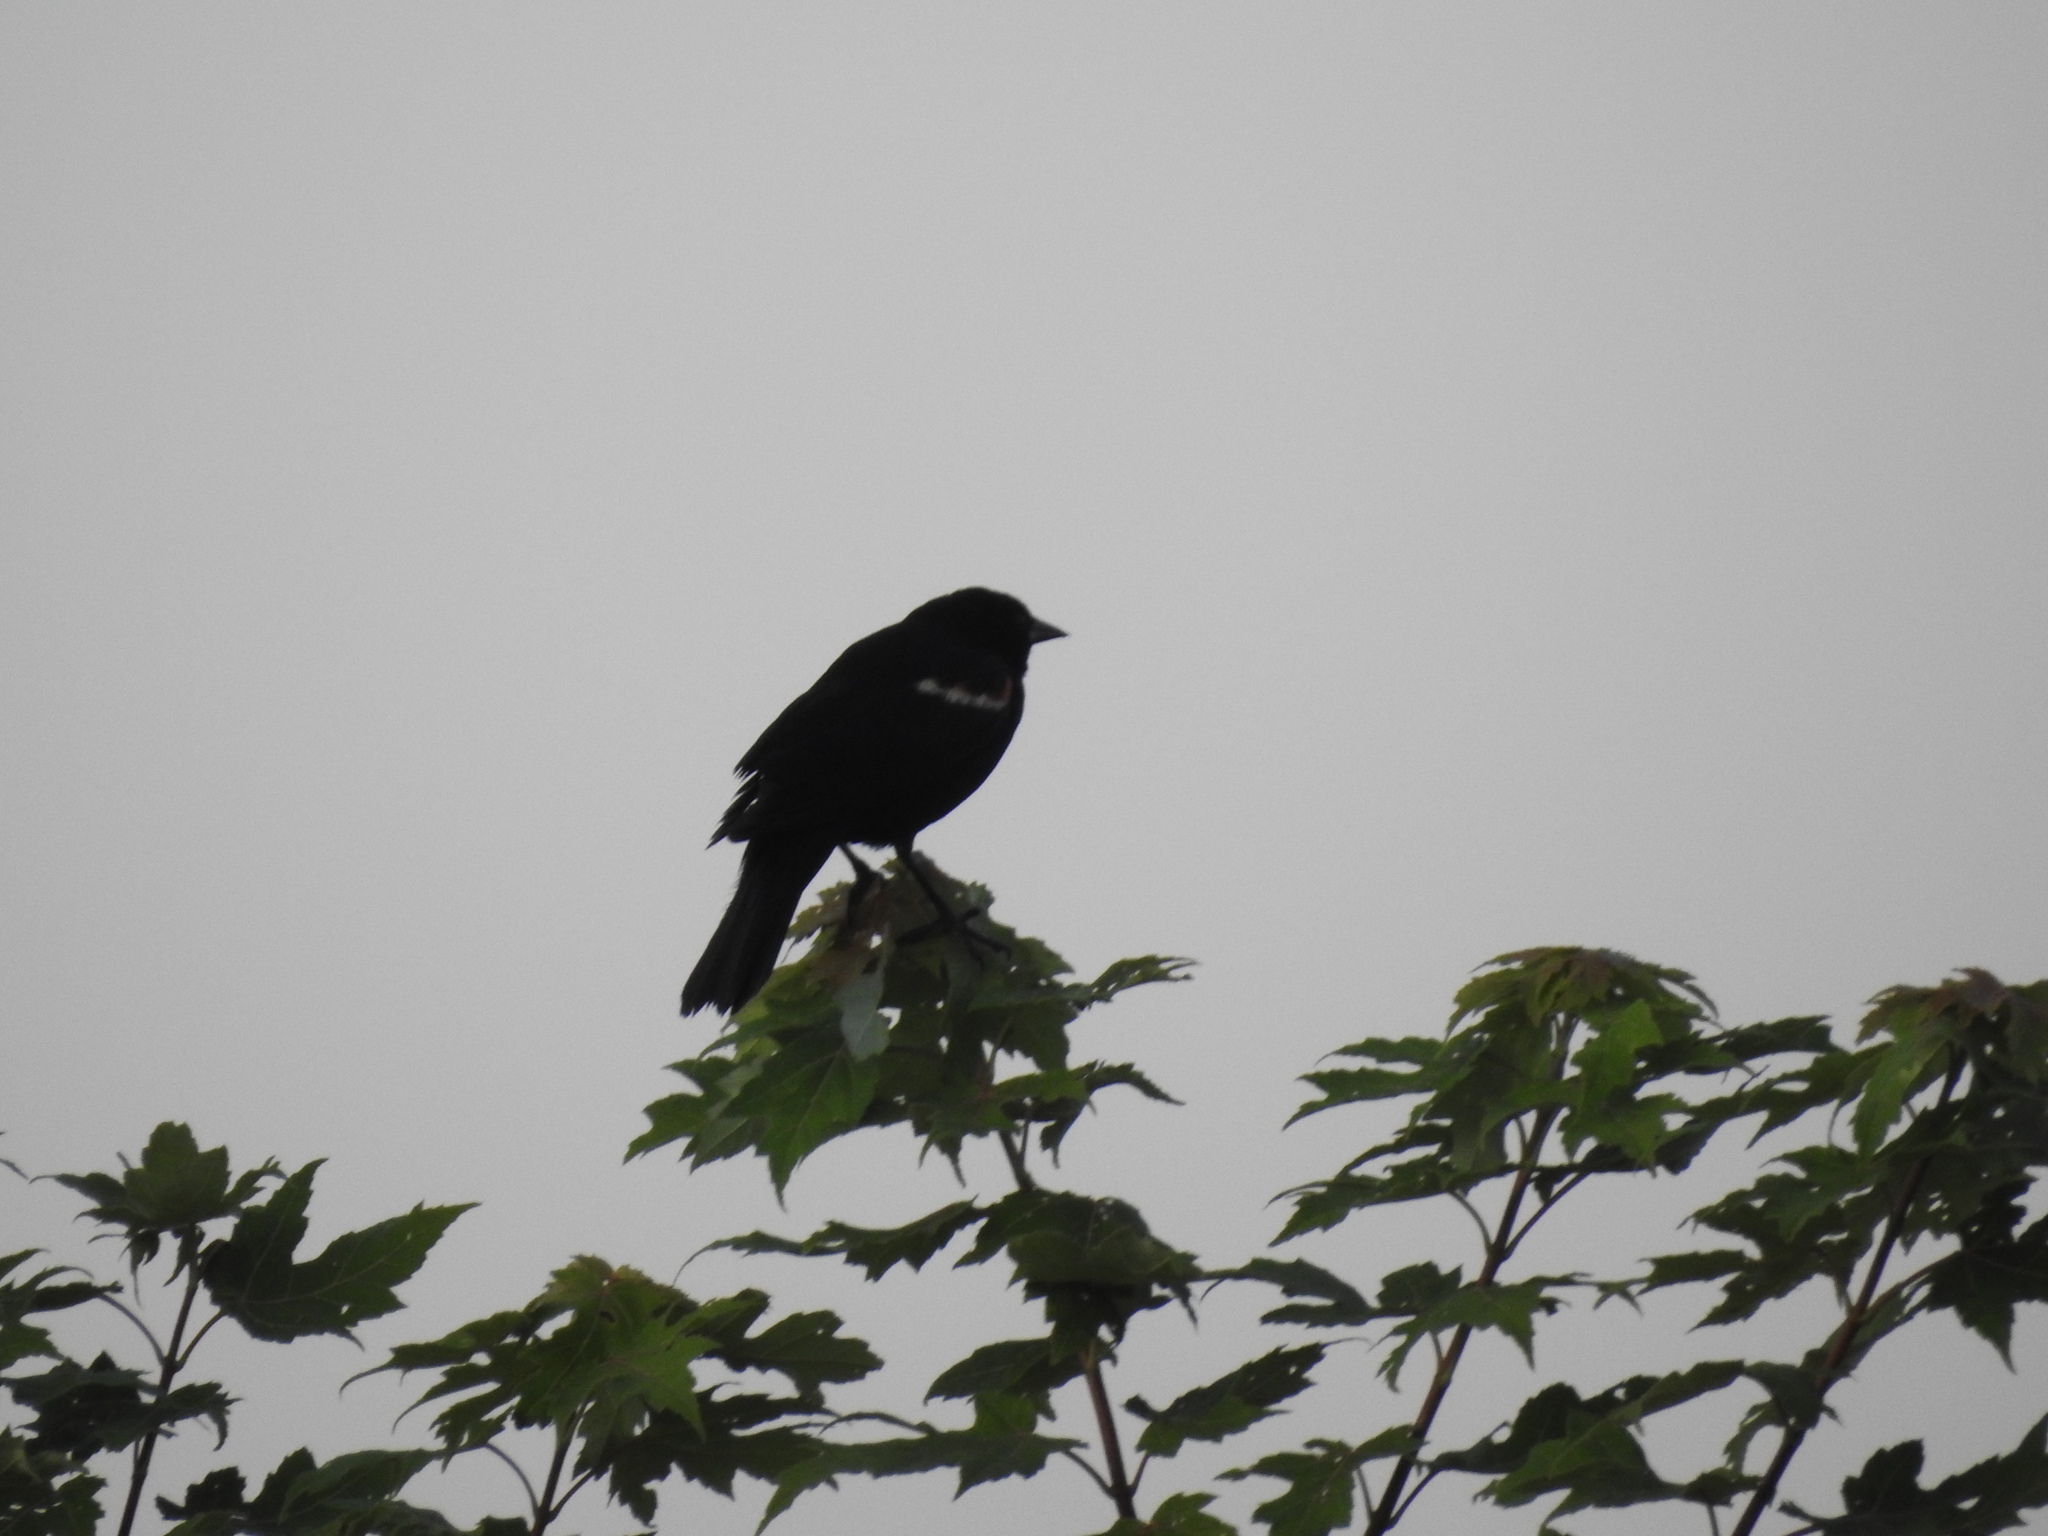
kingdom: Animalia
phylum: Chordata
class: Aves
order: Passeriformes
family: Icteridae
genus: Agelaius
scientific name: Agelaius phoeniceus
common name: Red-winged blackbird
